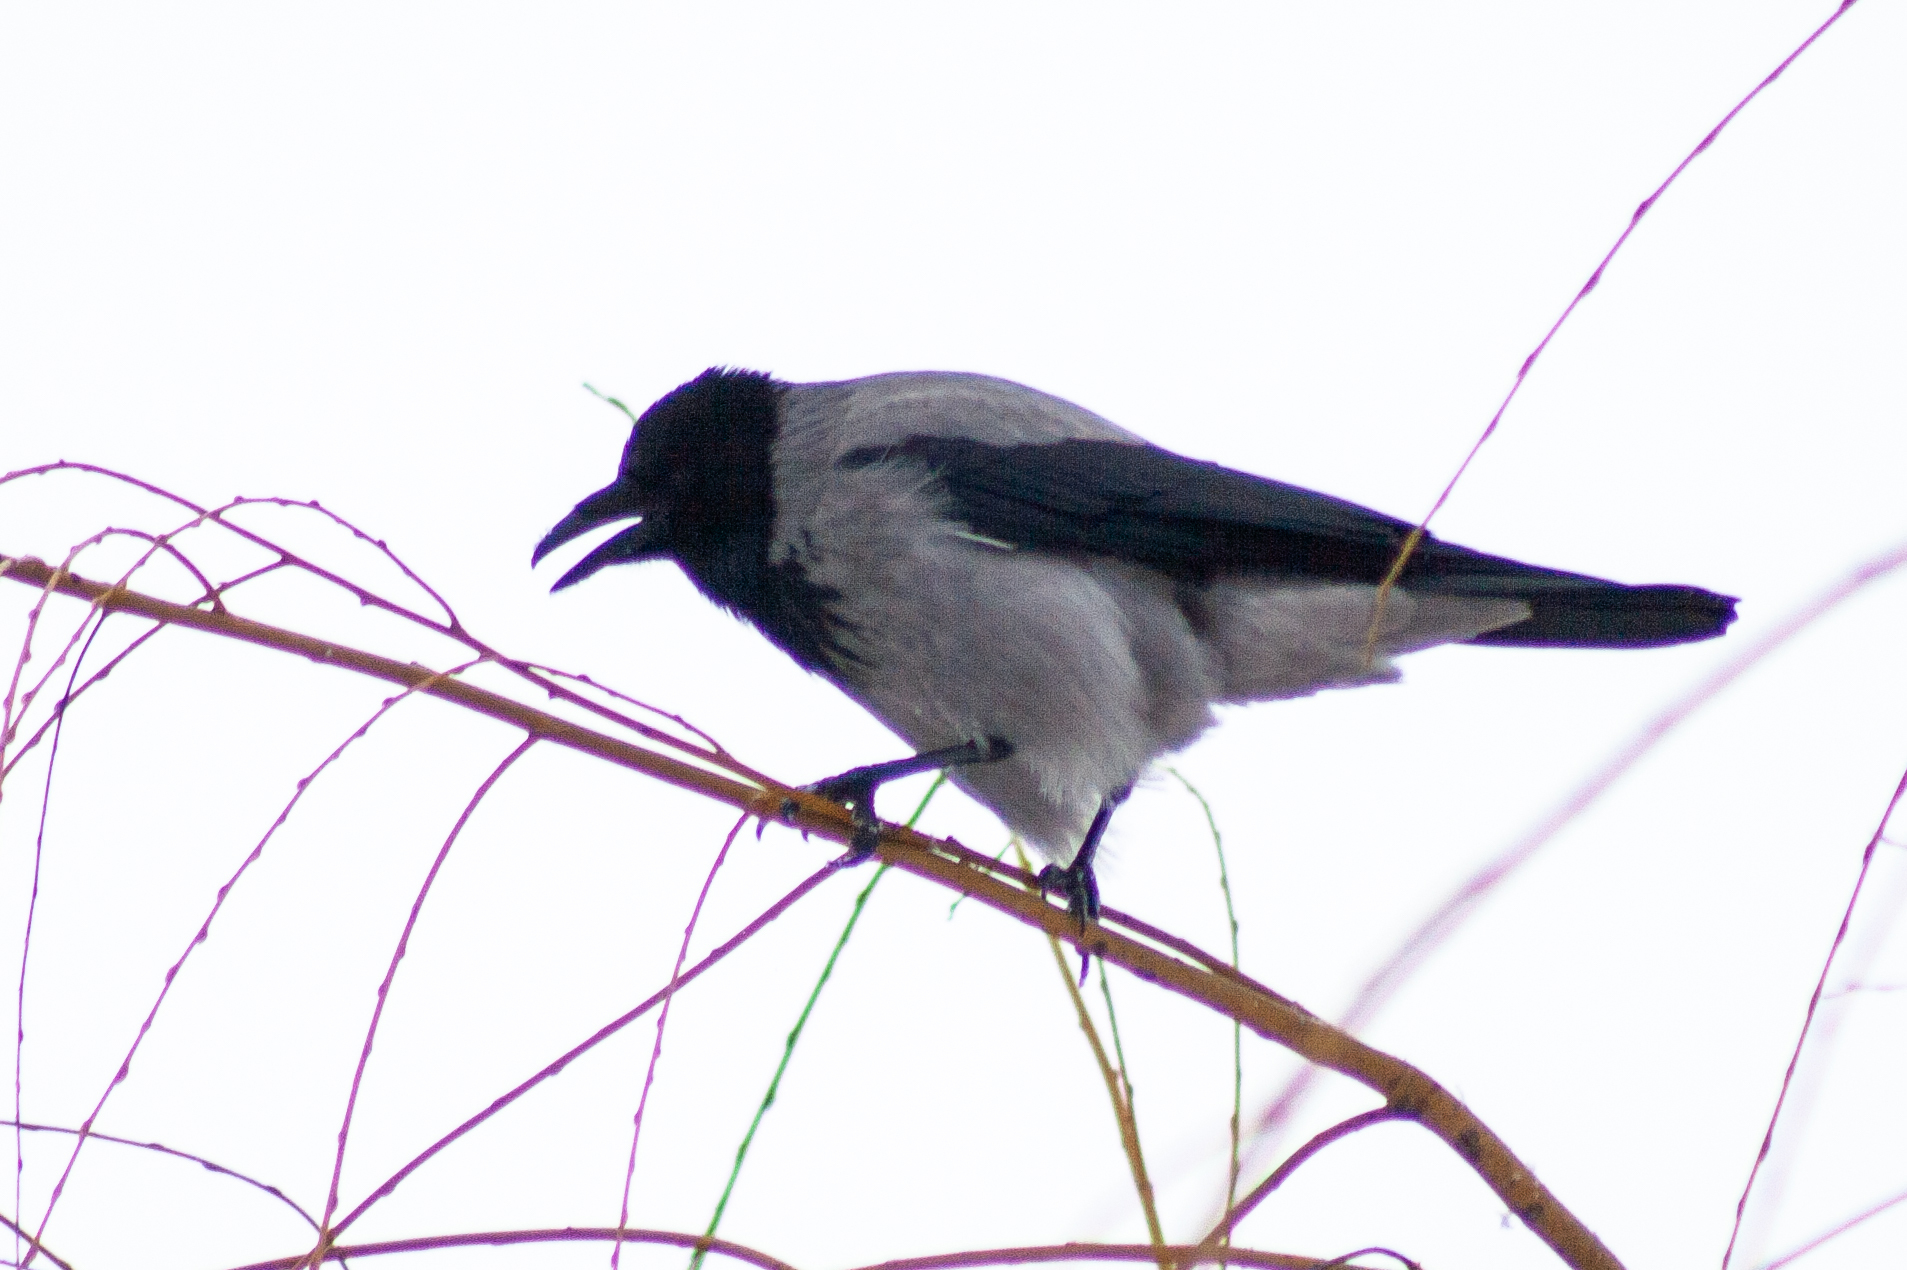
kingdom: Animalia
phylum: Chordata
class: Aves
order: Passeriformes
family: Corvidae
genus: Corvus
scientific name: Corvus cornix
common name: Hooded crow
